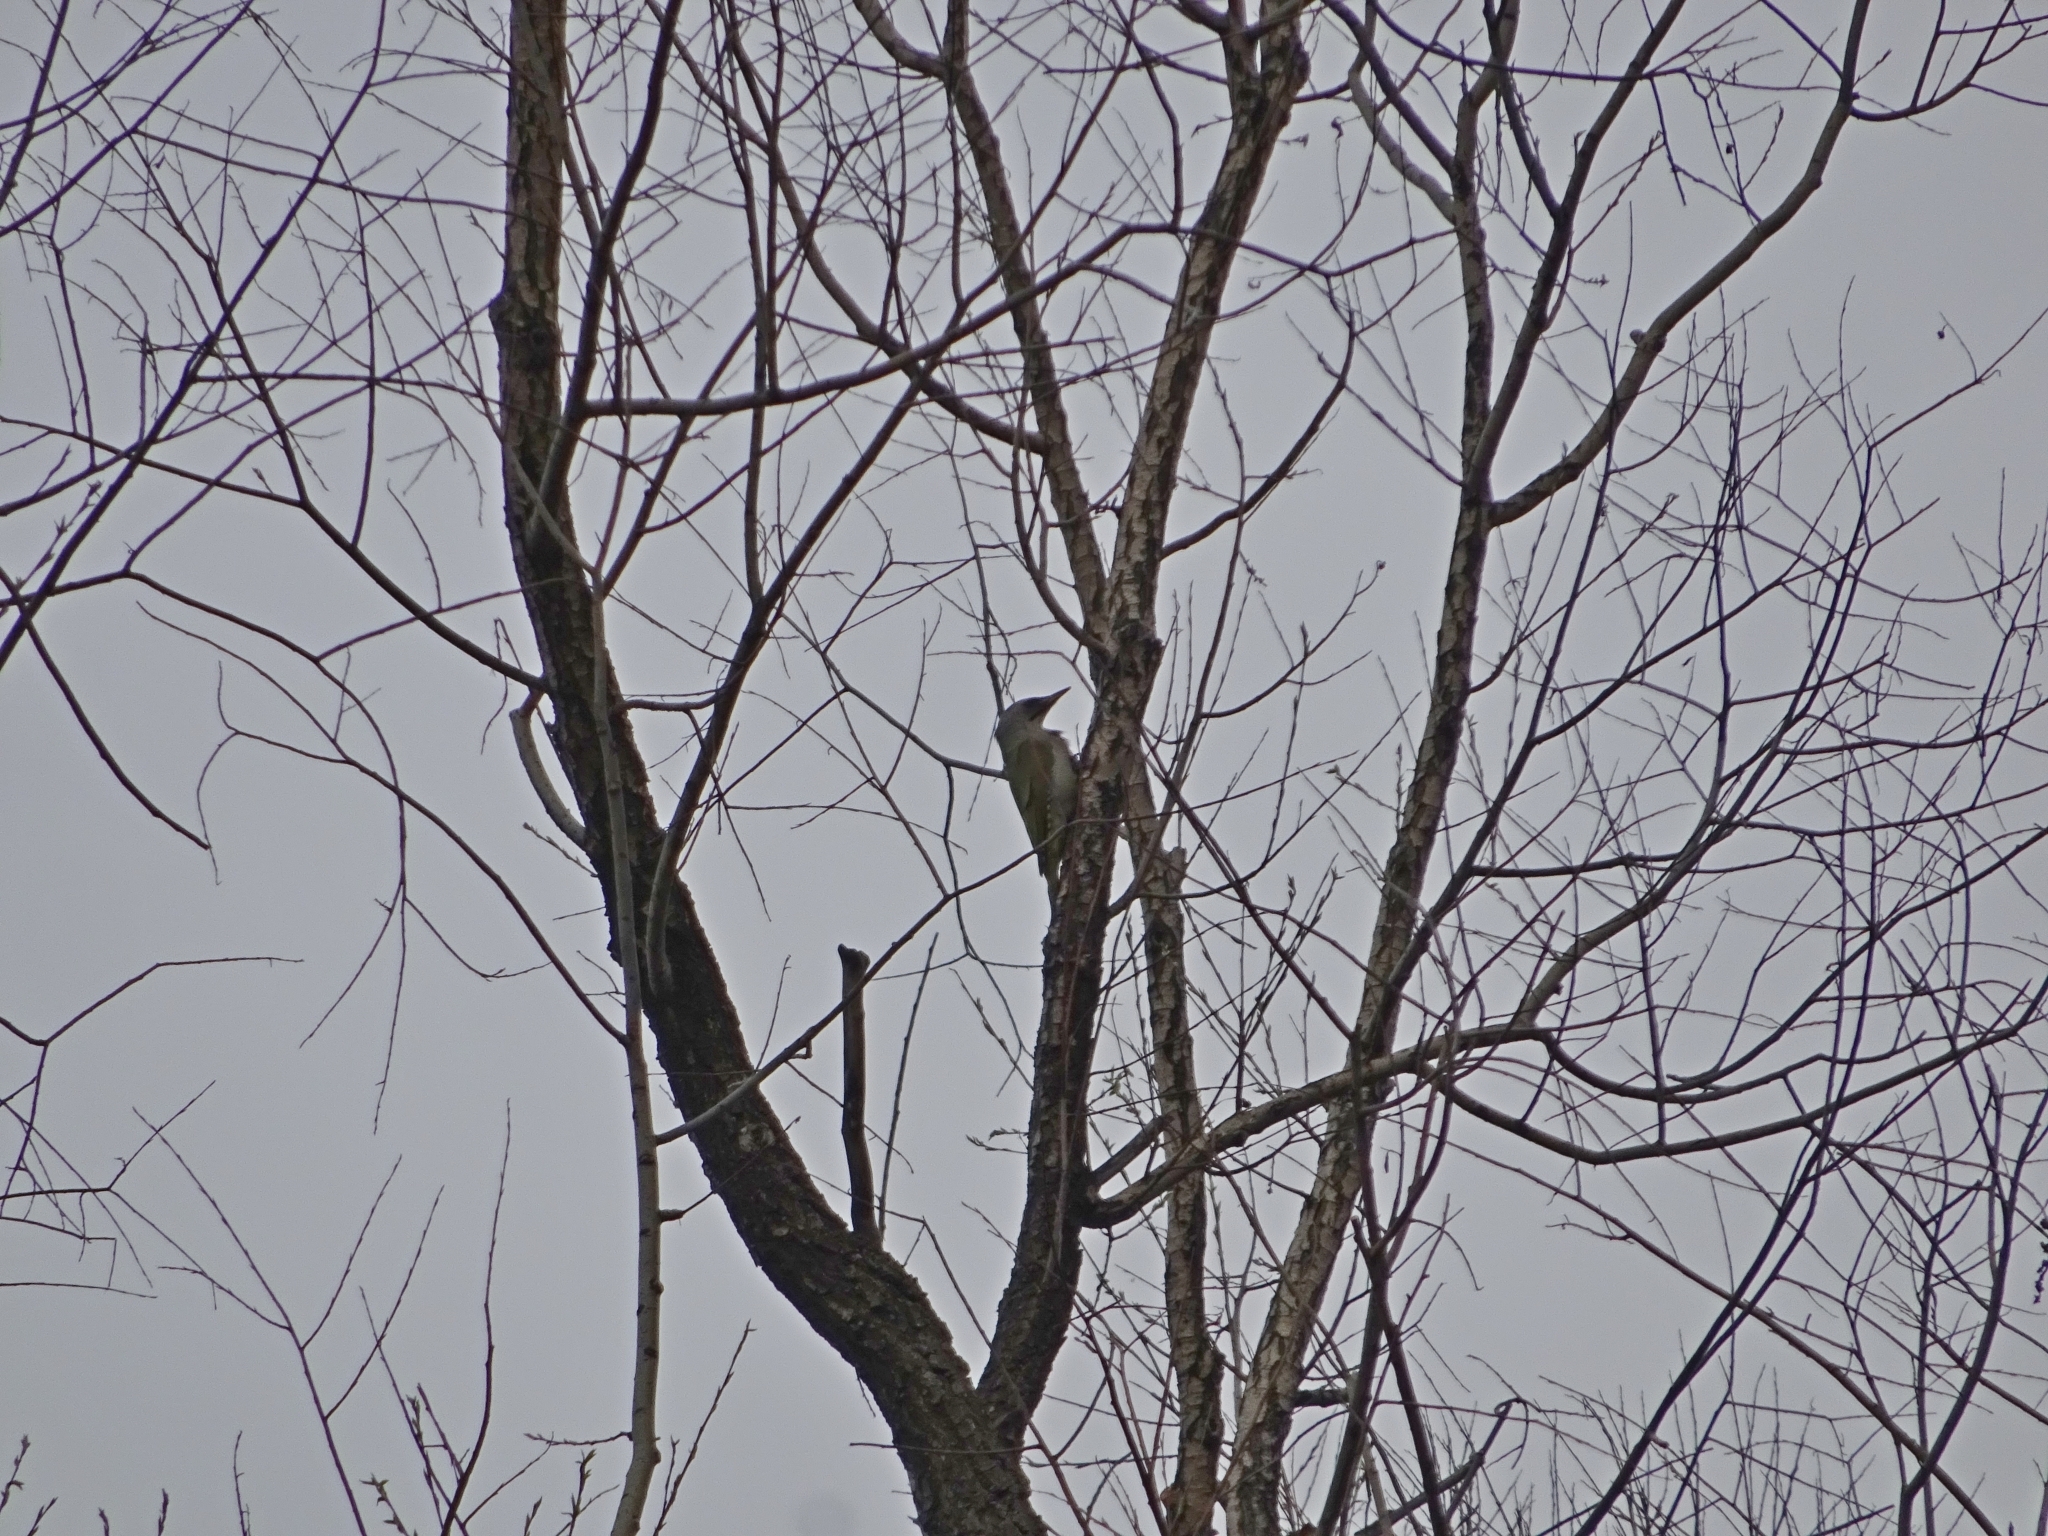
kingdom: Animalia
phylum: Chordata
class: Aves
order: Piciformes
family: Picidae
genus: Picus
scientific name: Picus canus
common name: Grey-headed woodpecker
